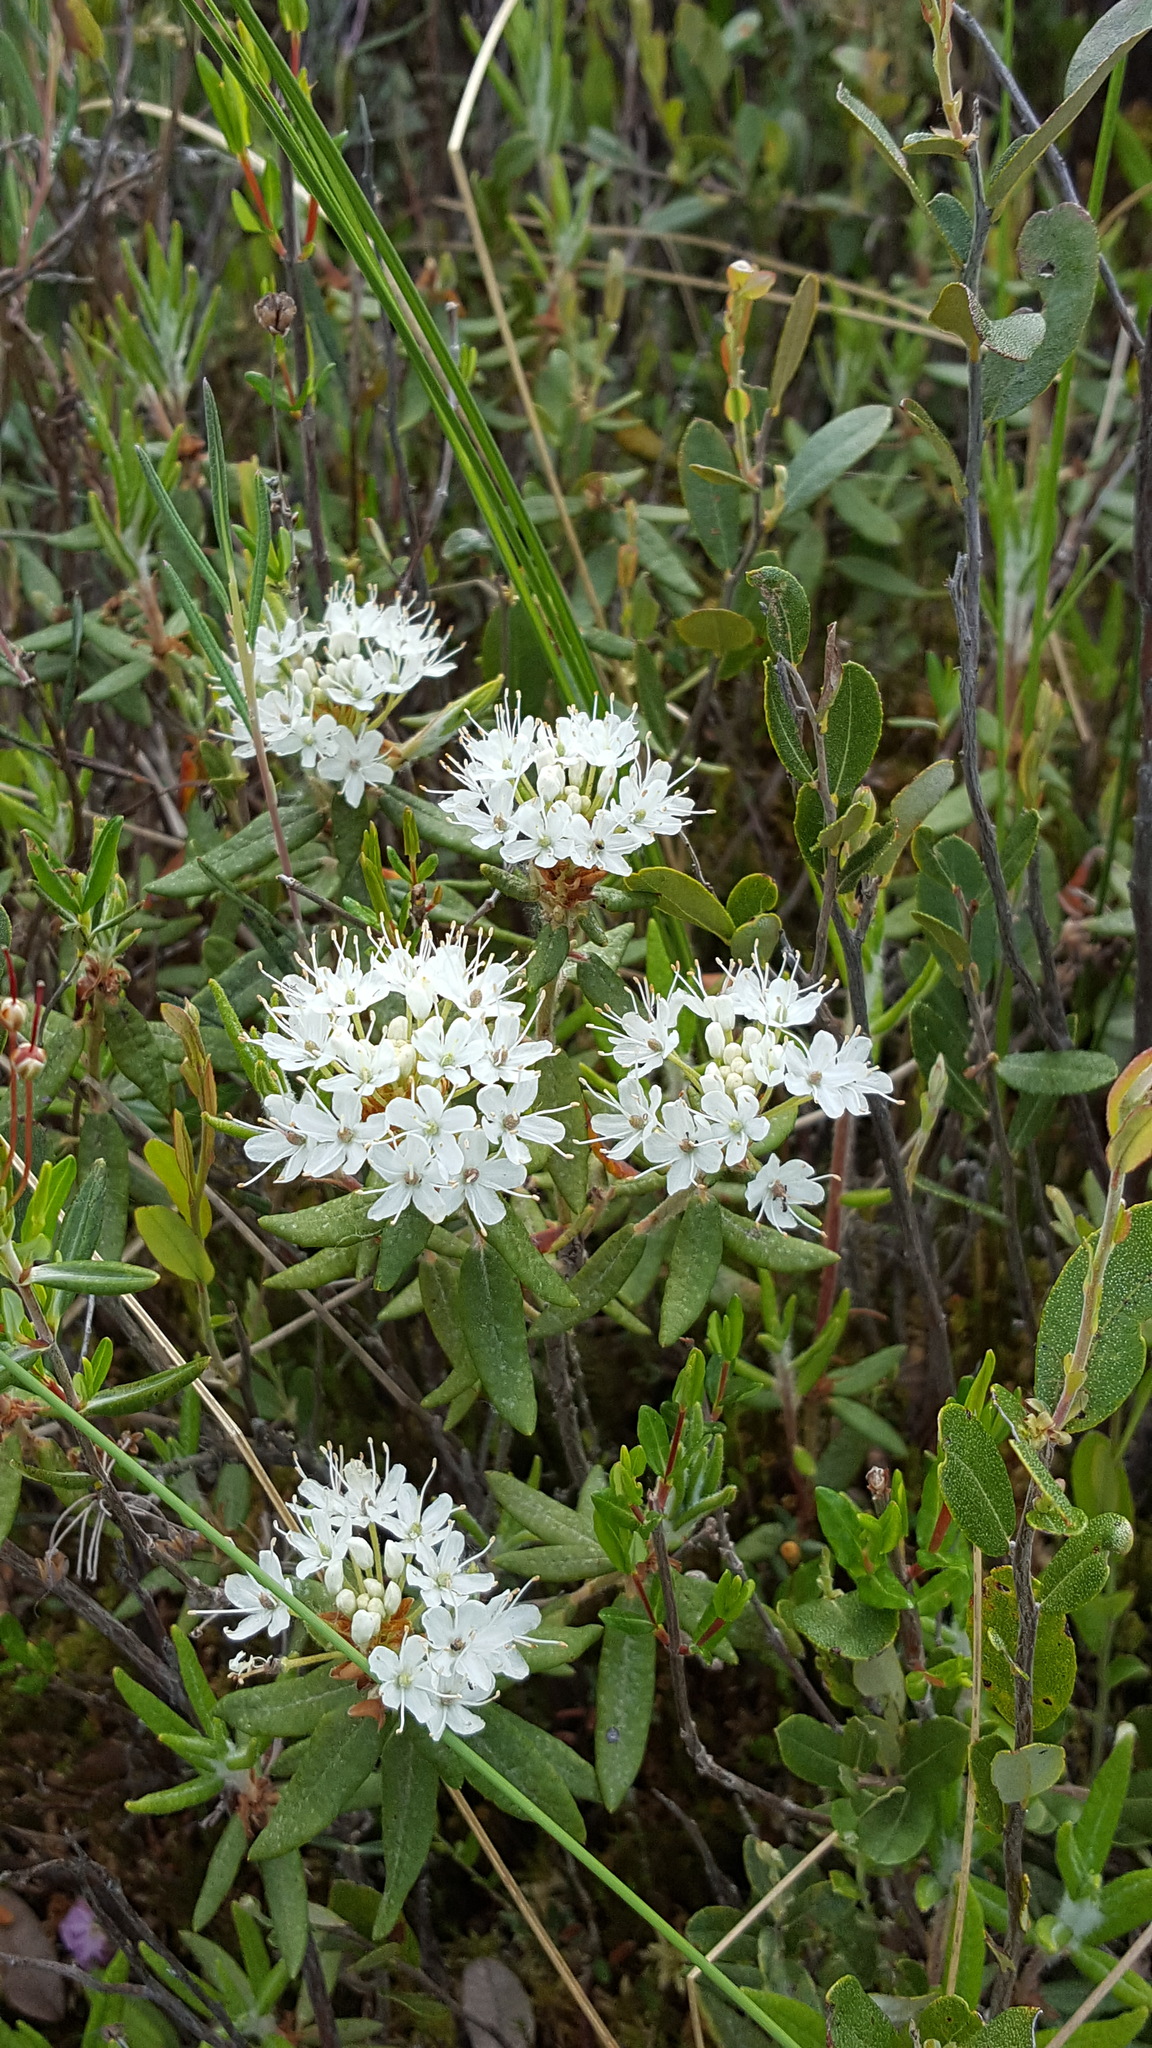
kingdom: Plantae
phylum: Tracheophyta
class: Magnoliopsida
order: Ericales
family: Ericaceae
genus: Rhododendron
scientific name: Rhododendron groenlandicum
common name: Bog labrador tea
